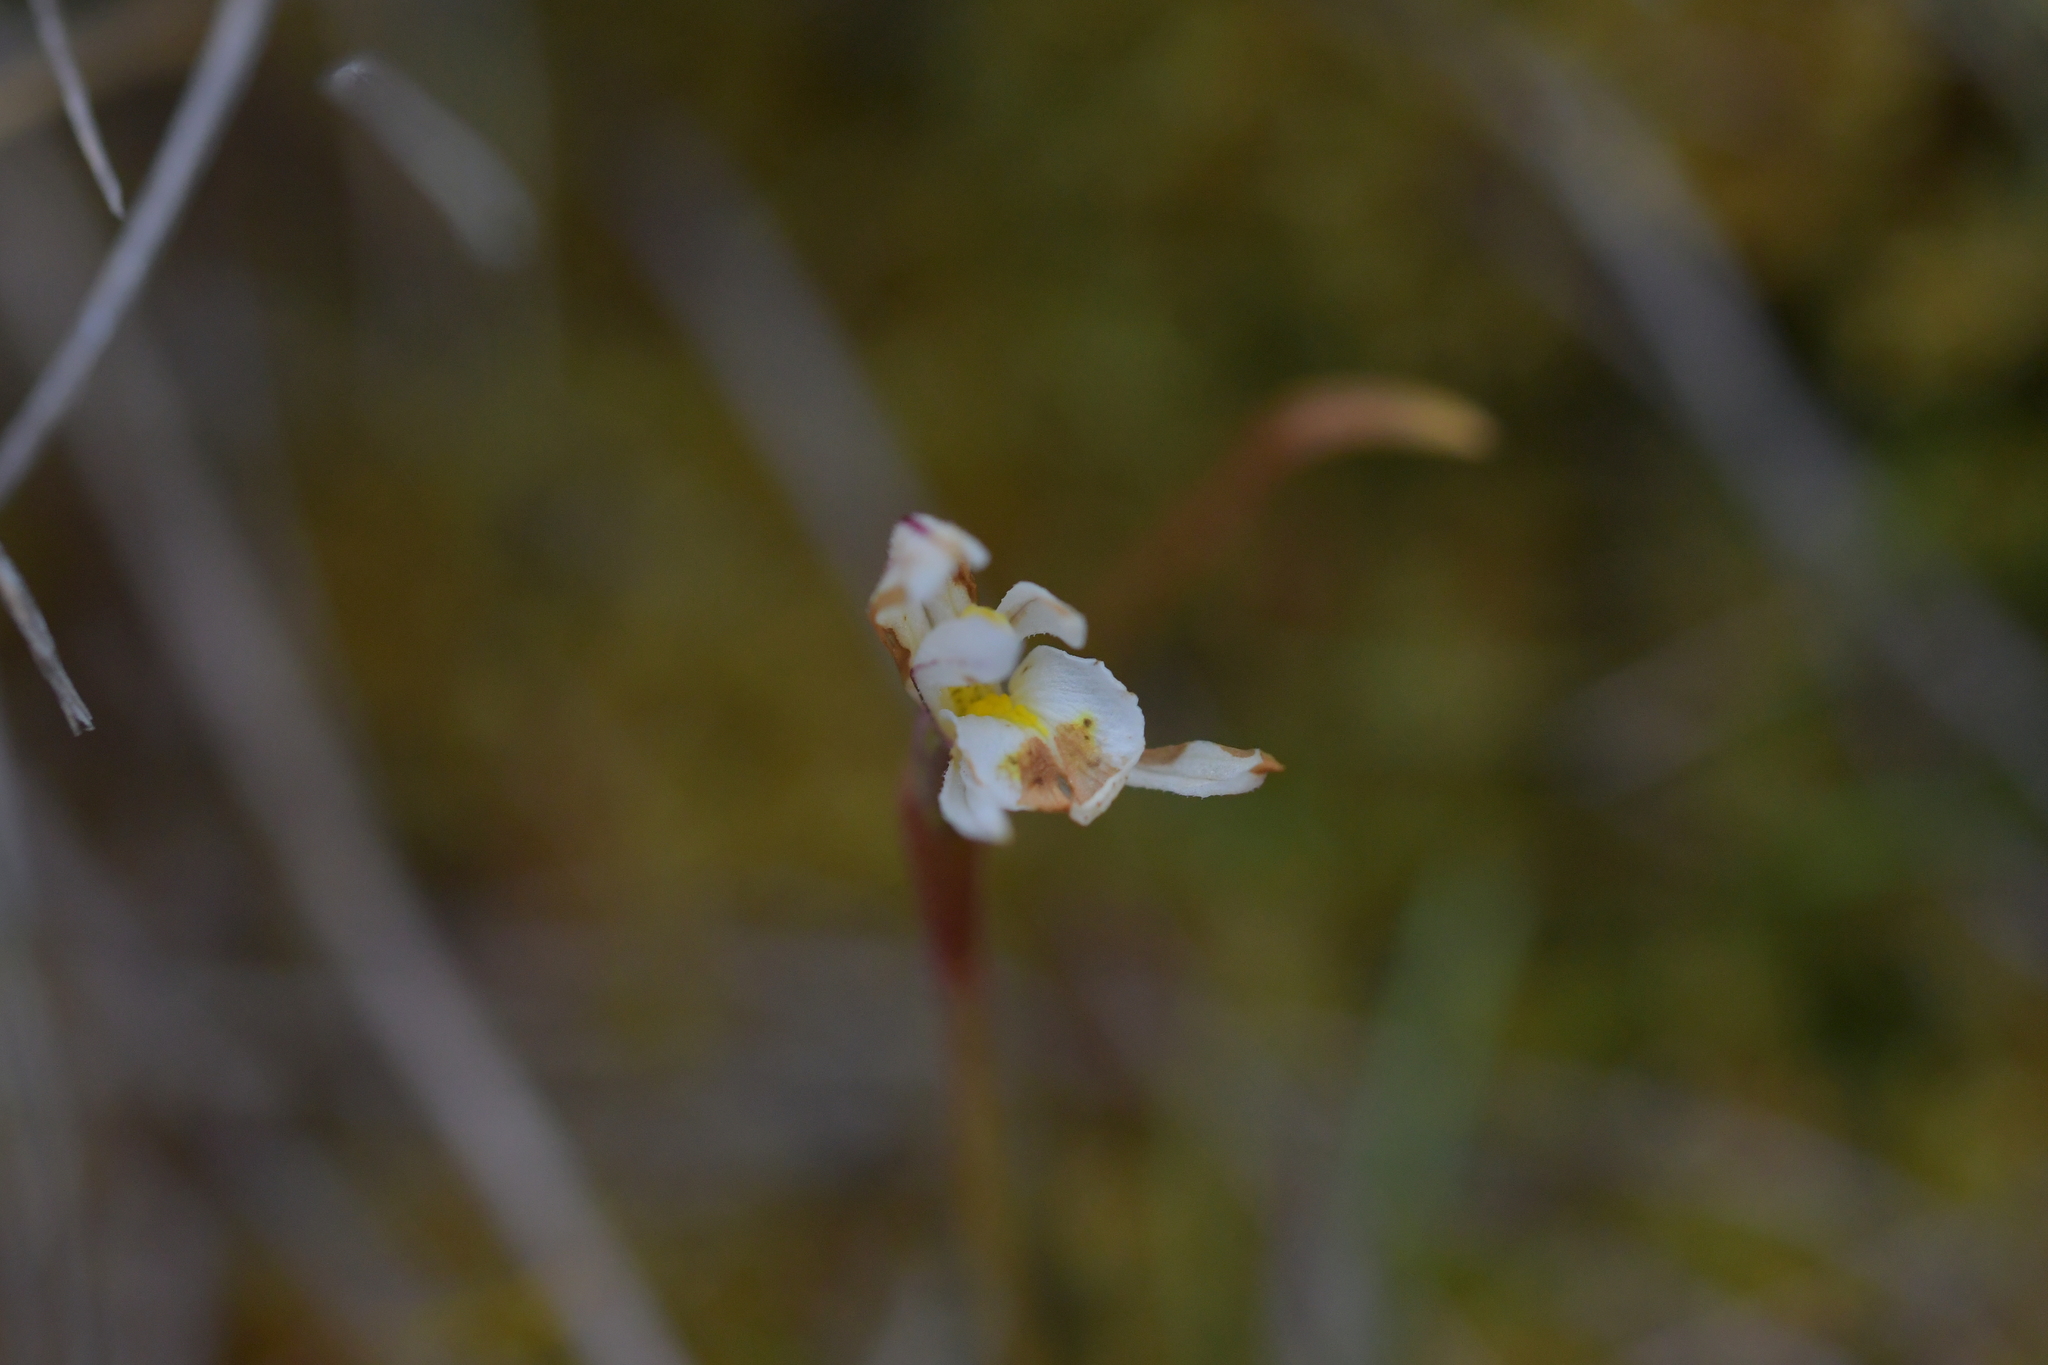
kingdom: Plantae
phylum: Tracheophyta
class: Liliopsida
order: Asparagales
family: Orchidaceae
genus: Aporostylis
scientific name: Aporostylis bifolia
